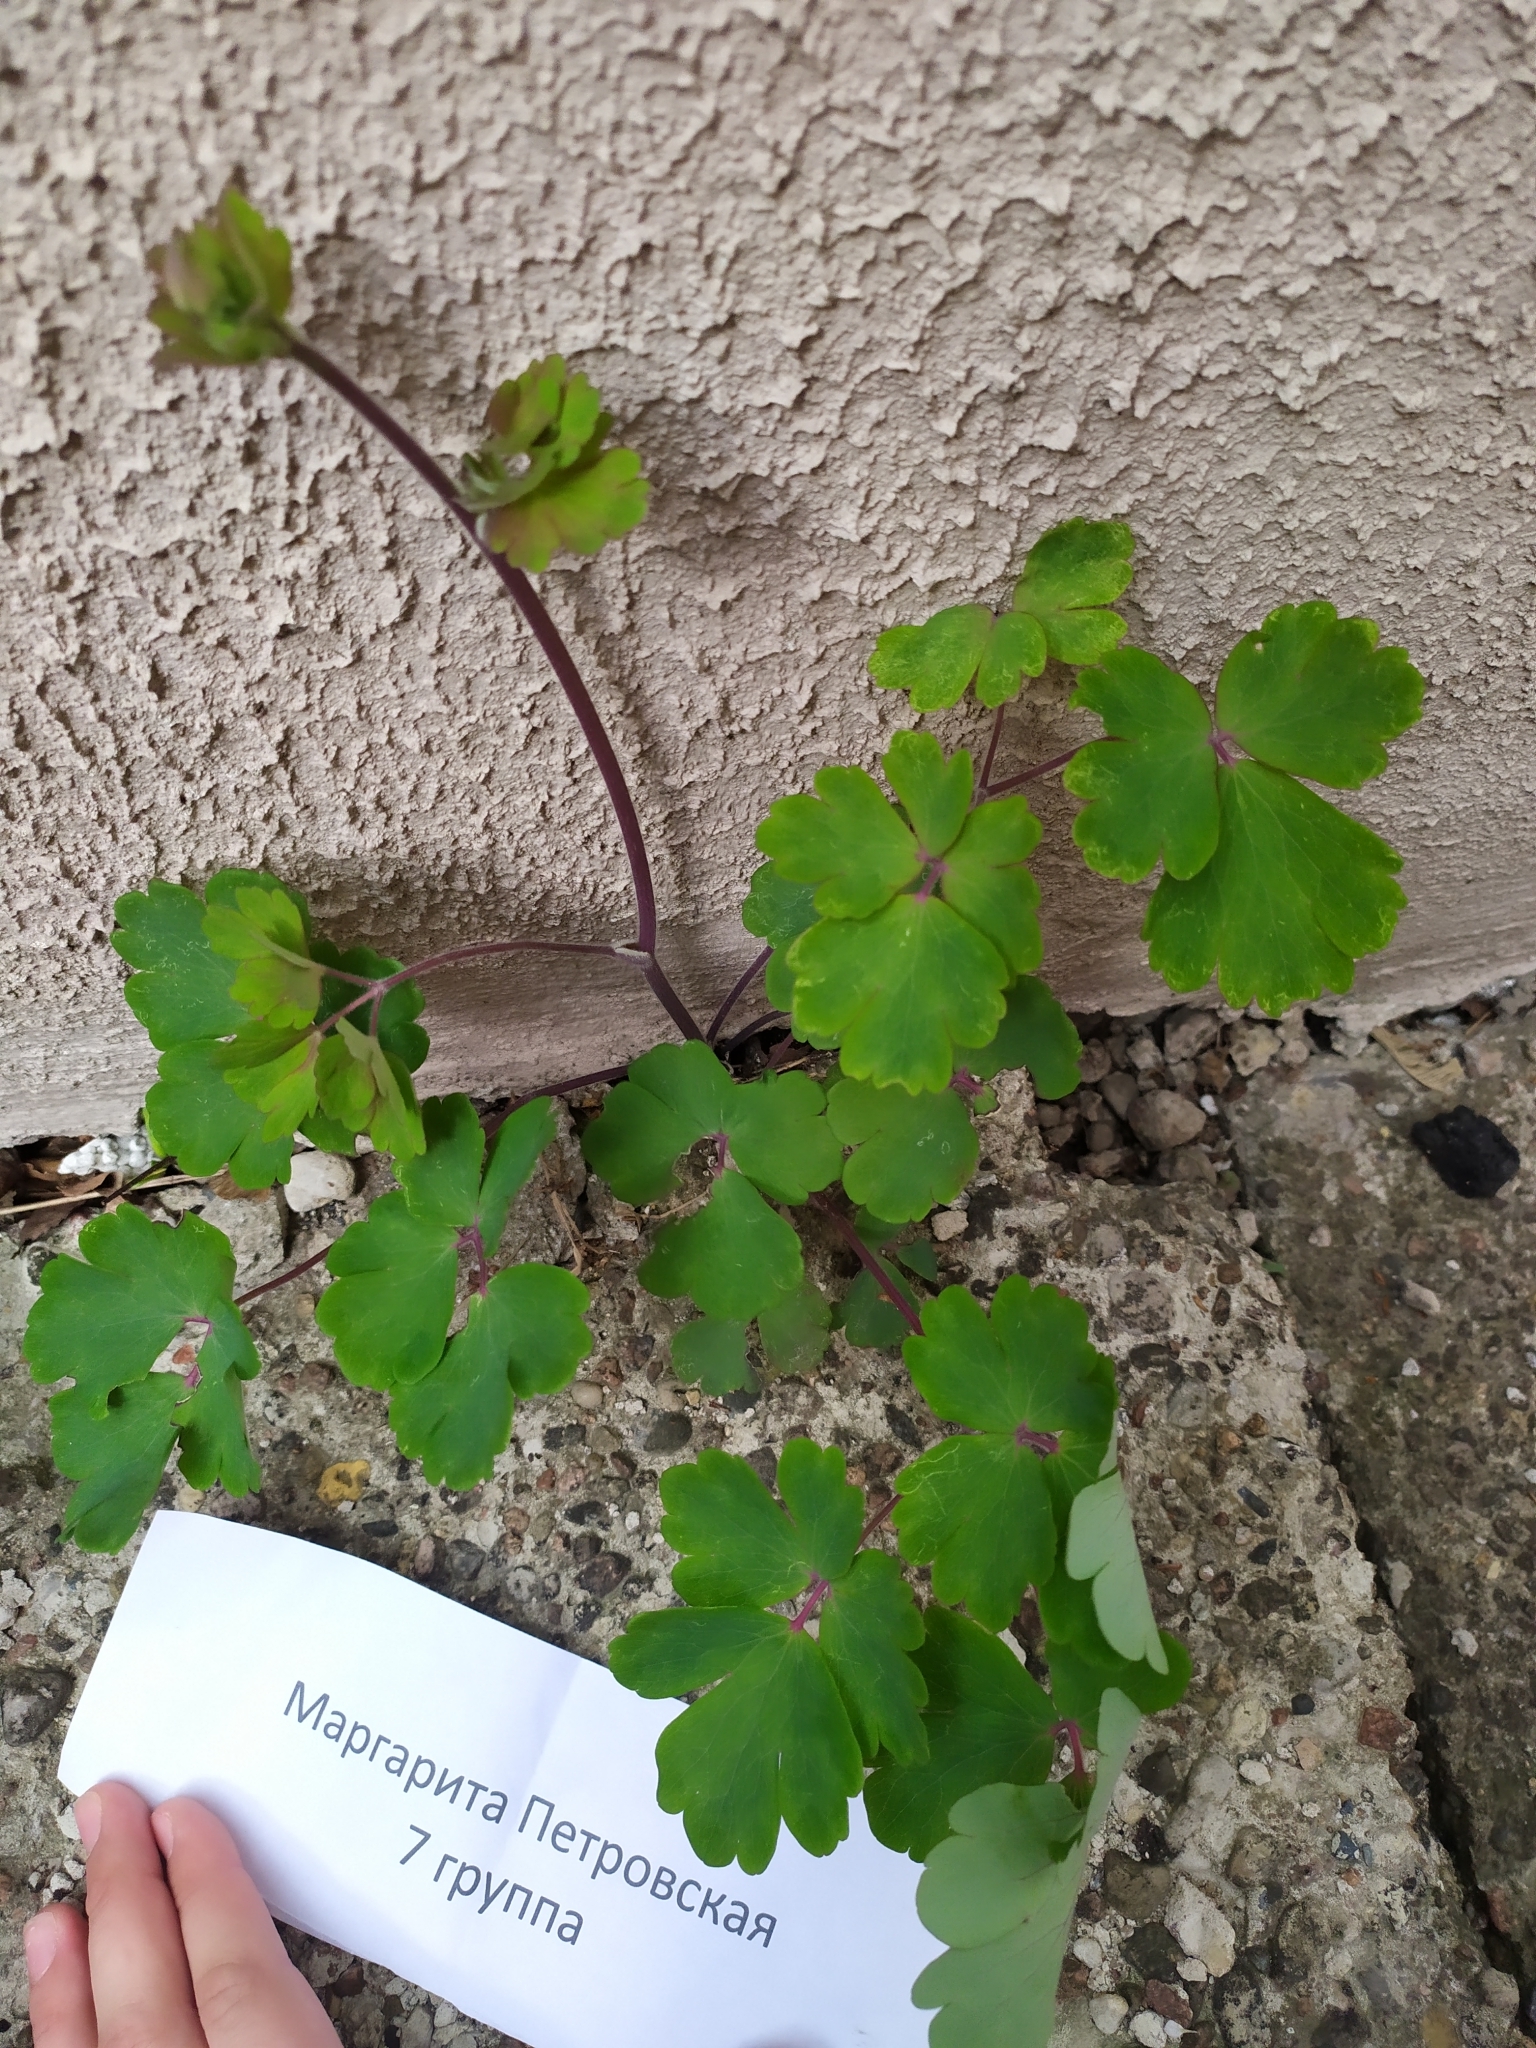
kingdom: Plantae
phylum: Tracheophyta
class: Magnoliopsida
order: Ranunculales
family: Ranunculaceae
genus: Aquilegia
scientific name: Aquilegia vulgaris
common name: Columbine
